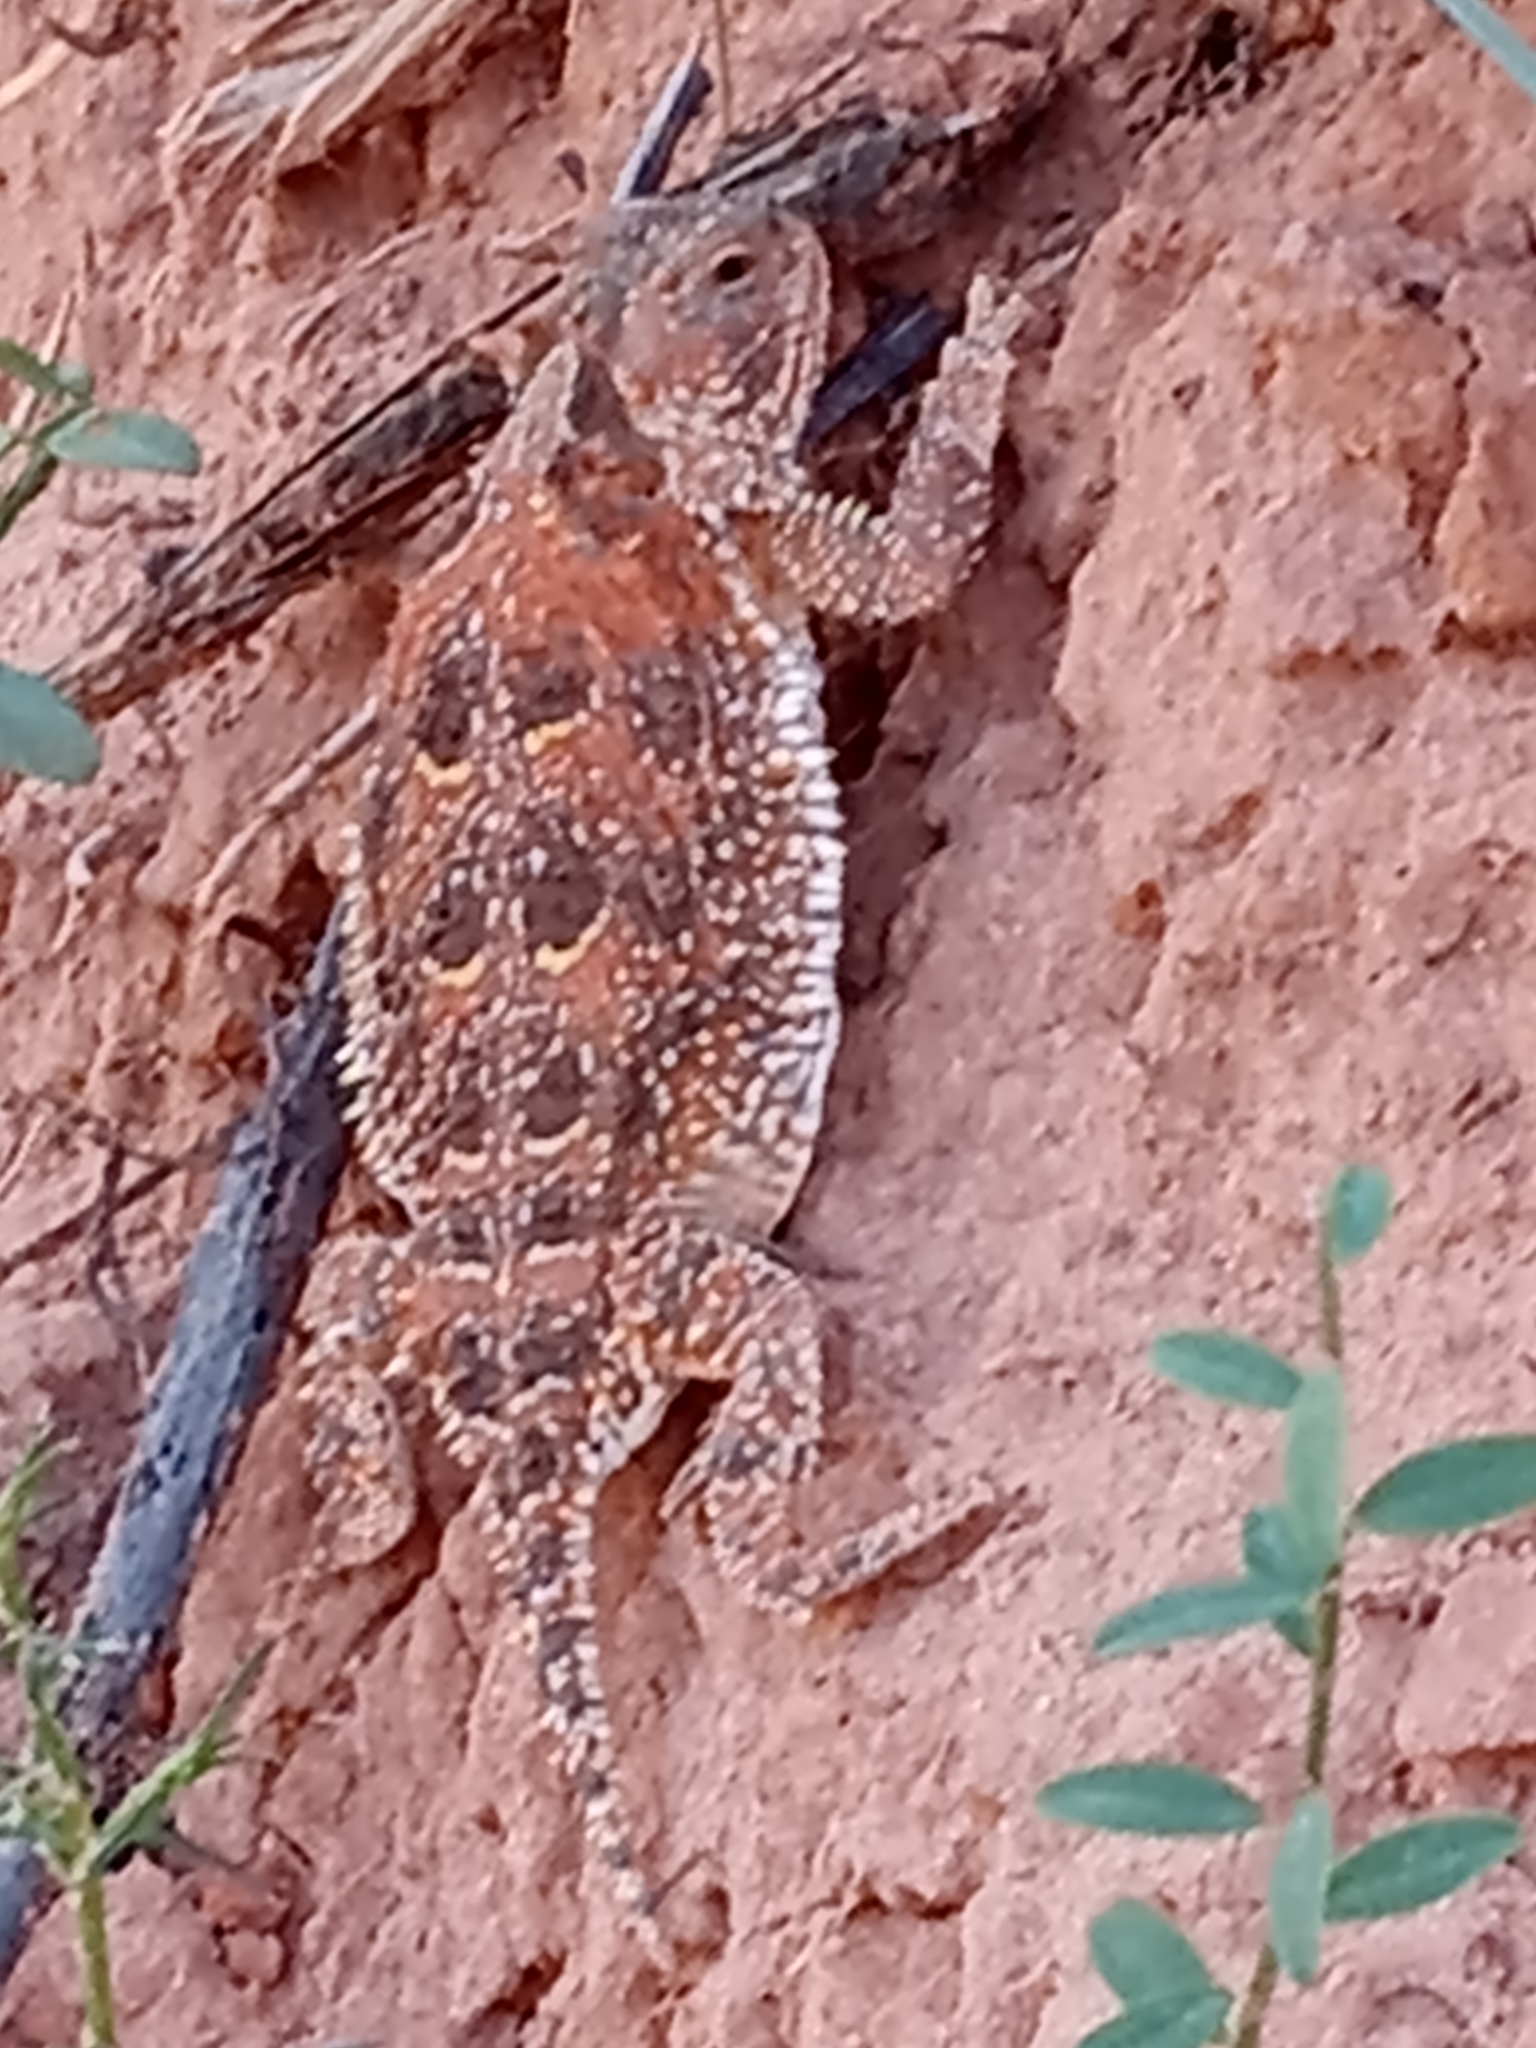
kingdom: Animalia
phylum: Chordata
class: Squamata
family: Phrynosomatidae
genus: Phrynosoma
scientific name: Phrynosoma hernandesi
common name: Greater short-horned lizard
